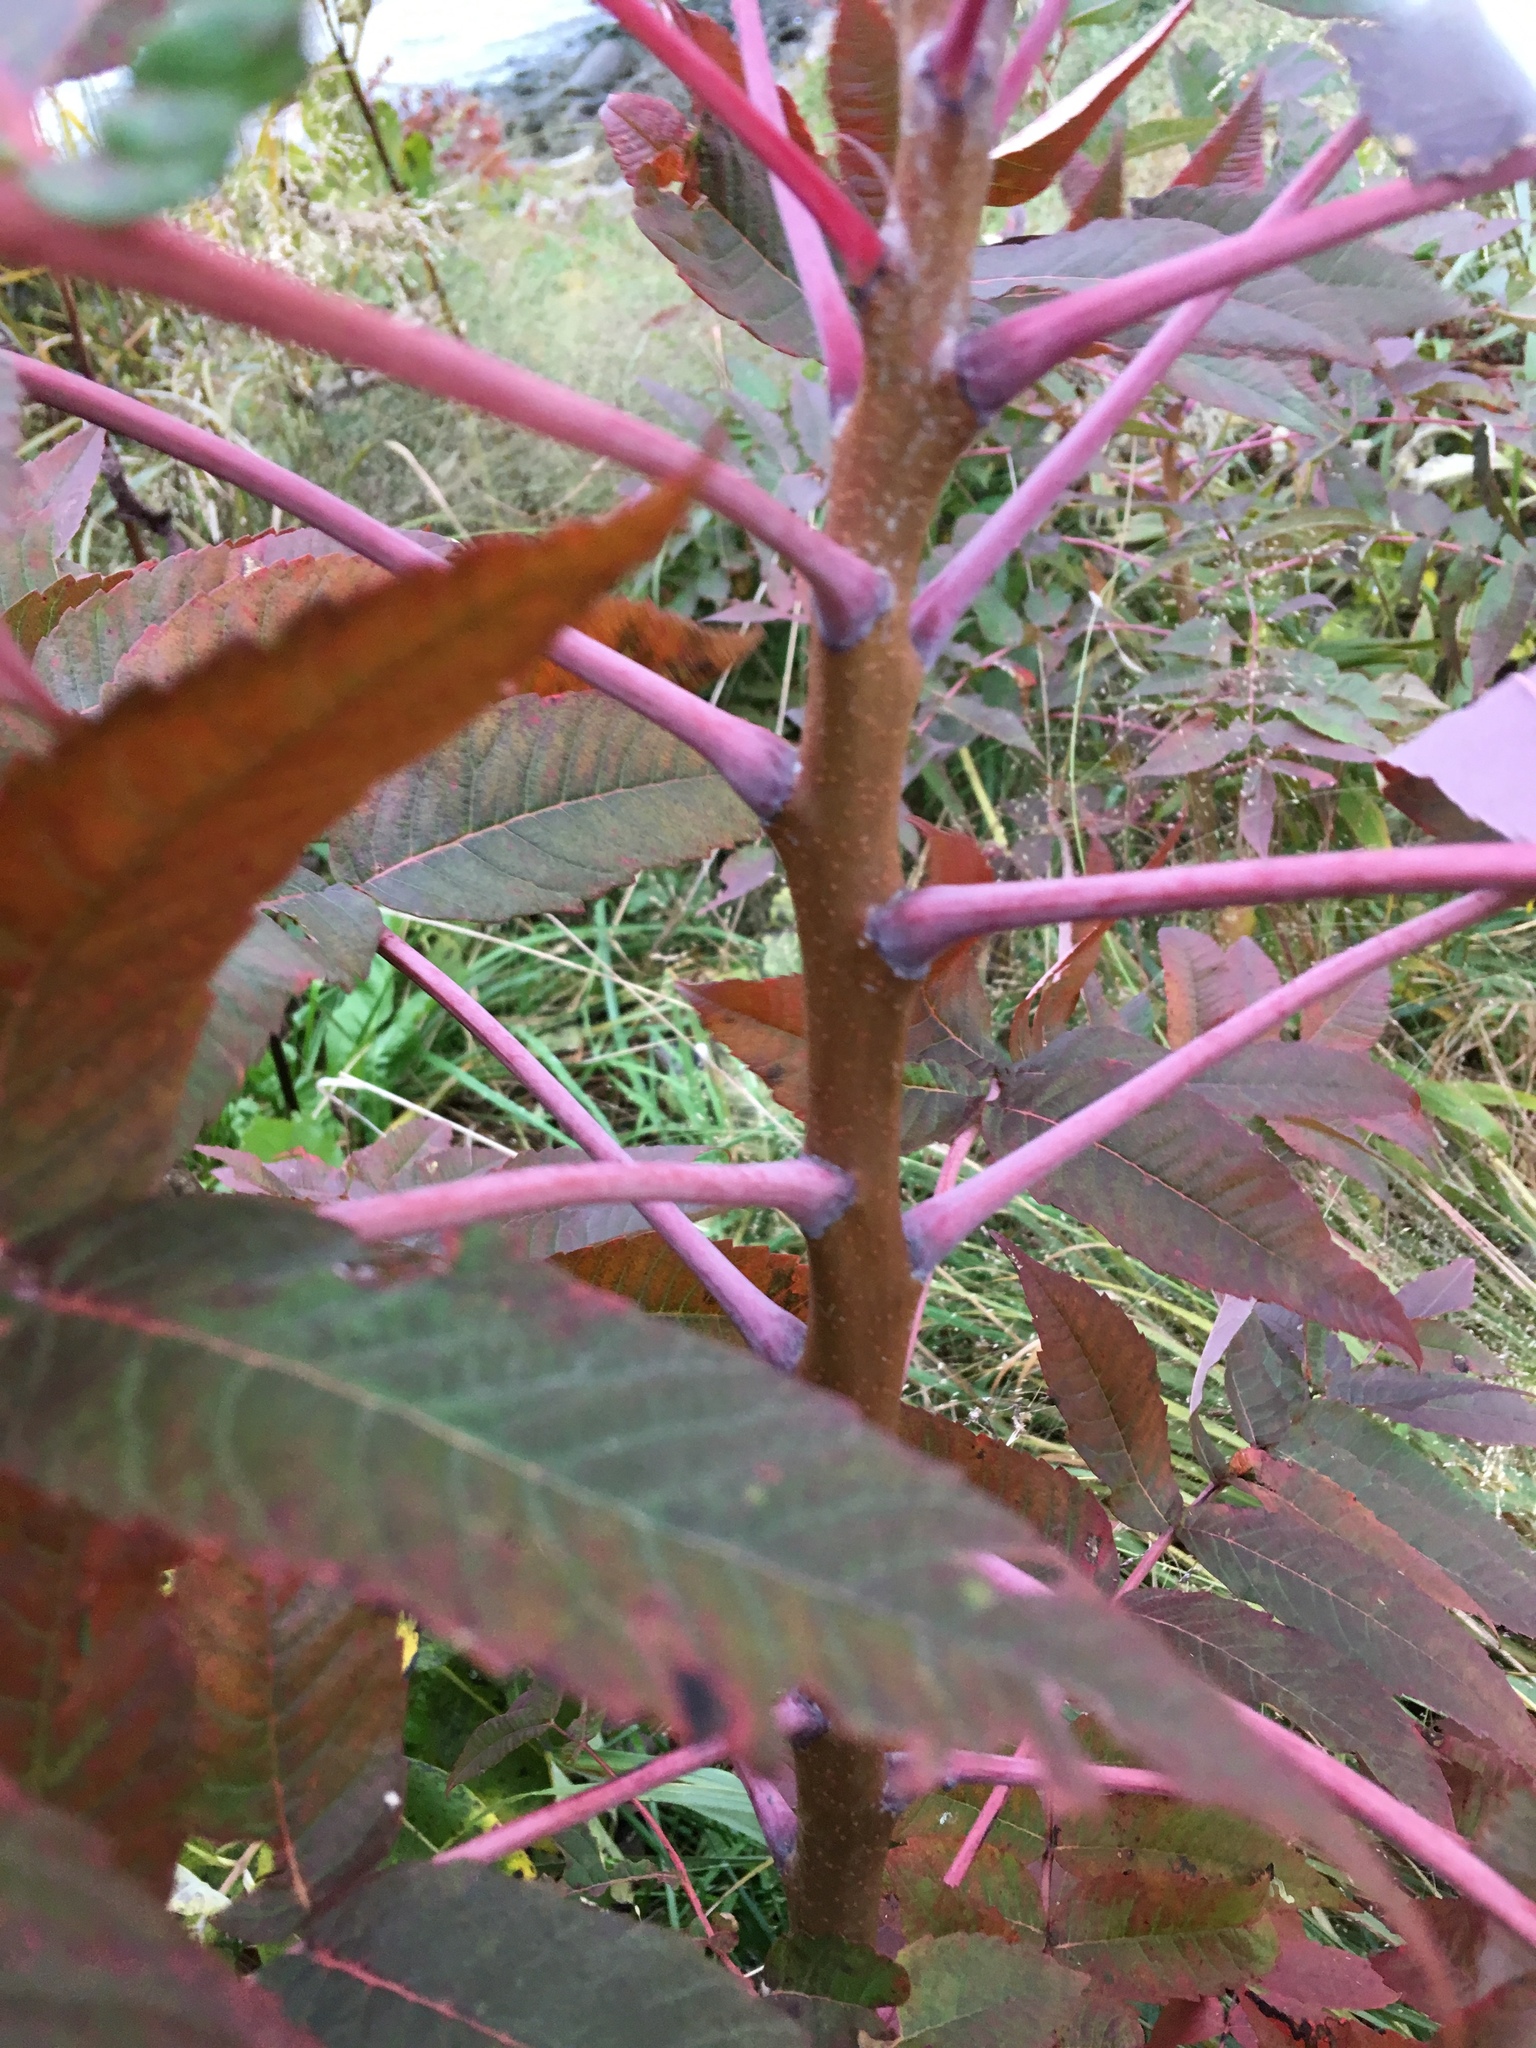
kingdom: Plantae
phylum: Tracheophyta
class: Magnoliopsida
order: Sapindales
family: Anacardiaceae
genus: Rhus
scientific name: Rhus glabra
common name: Scarlet sumac
